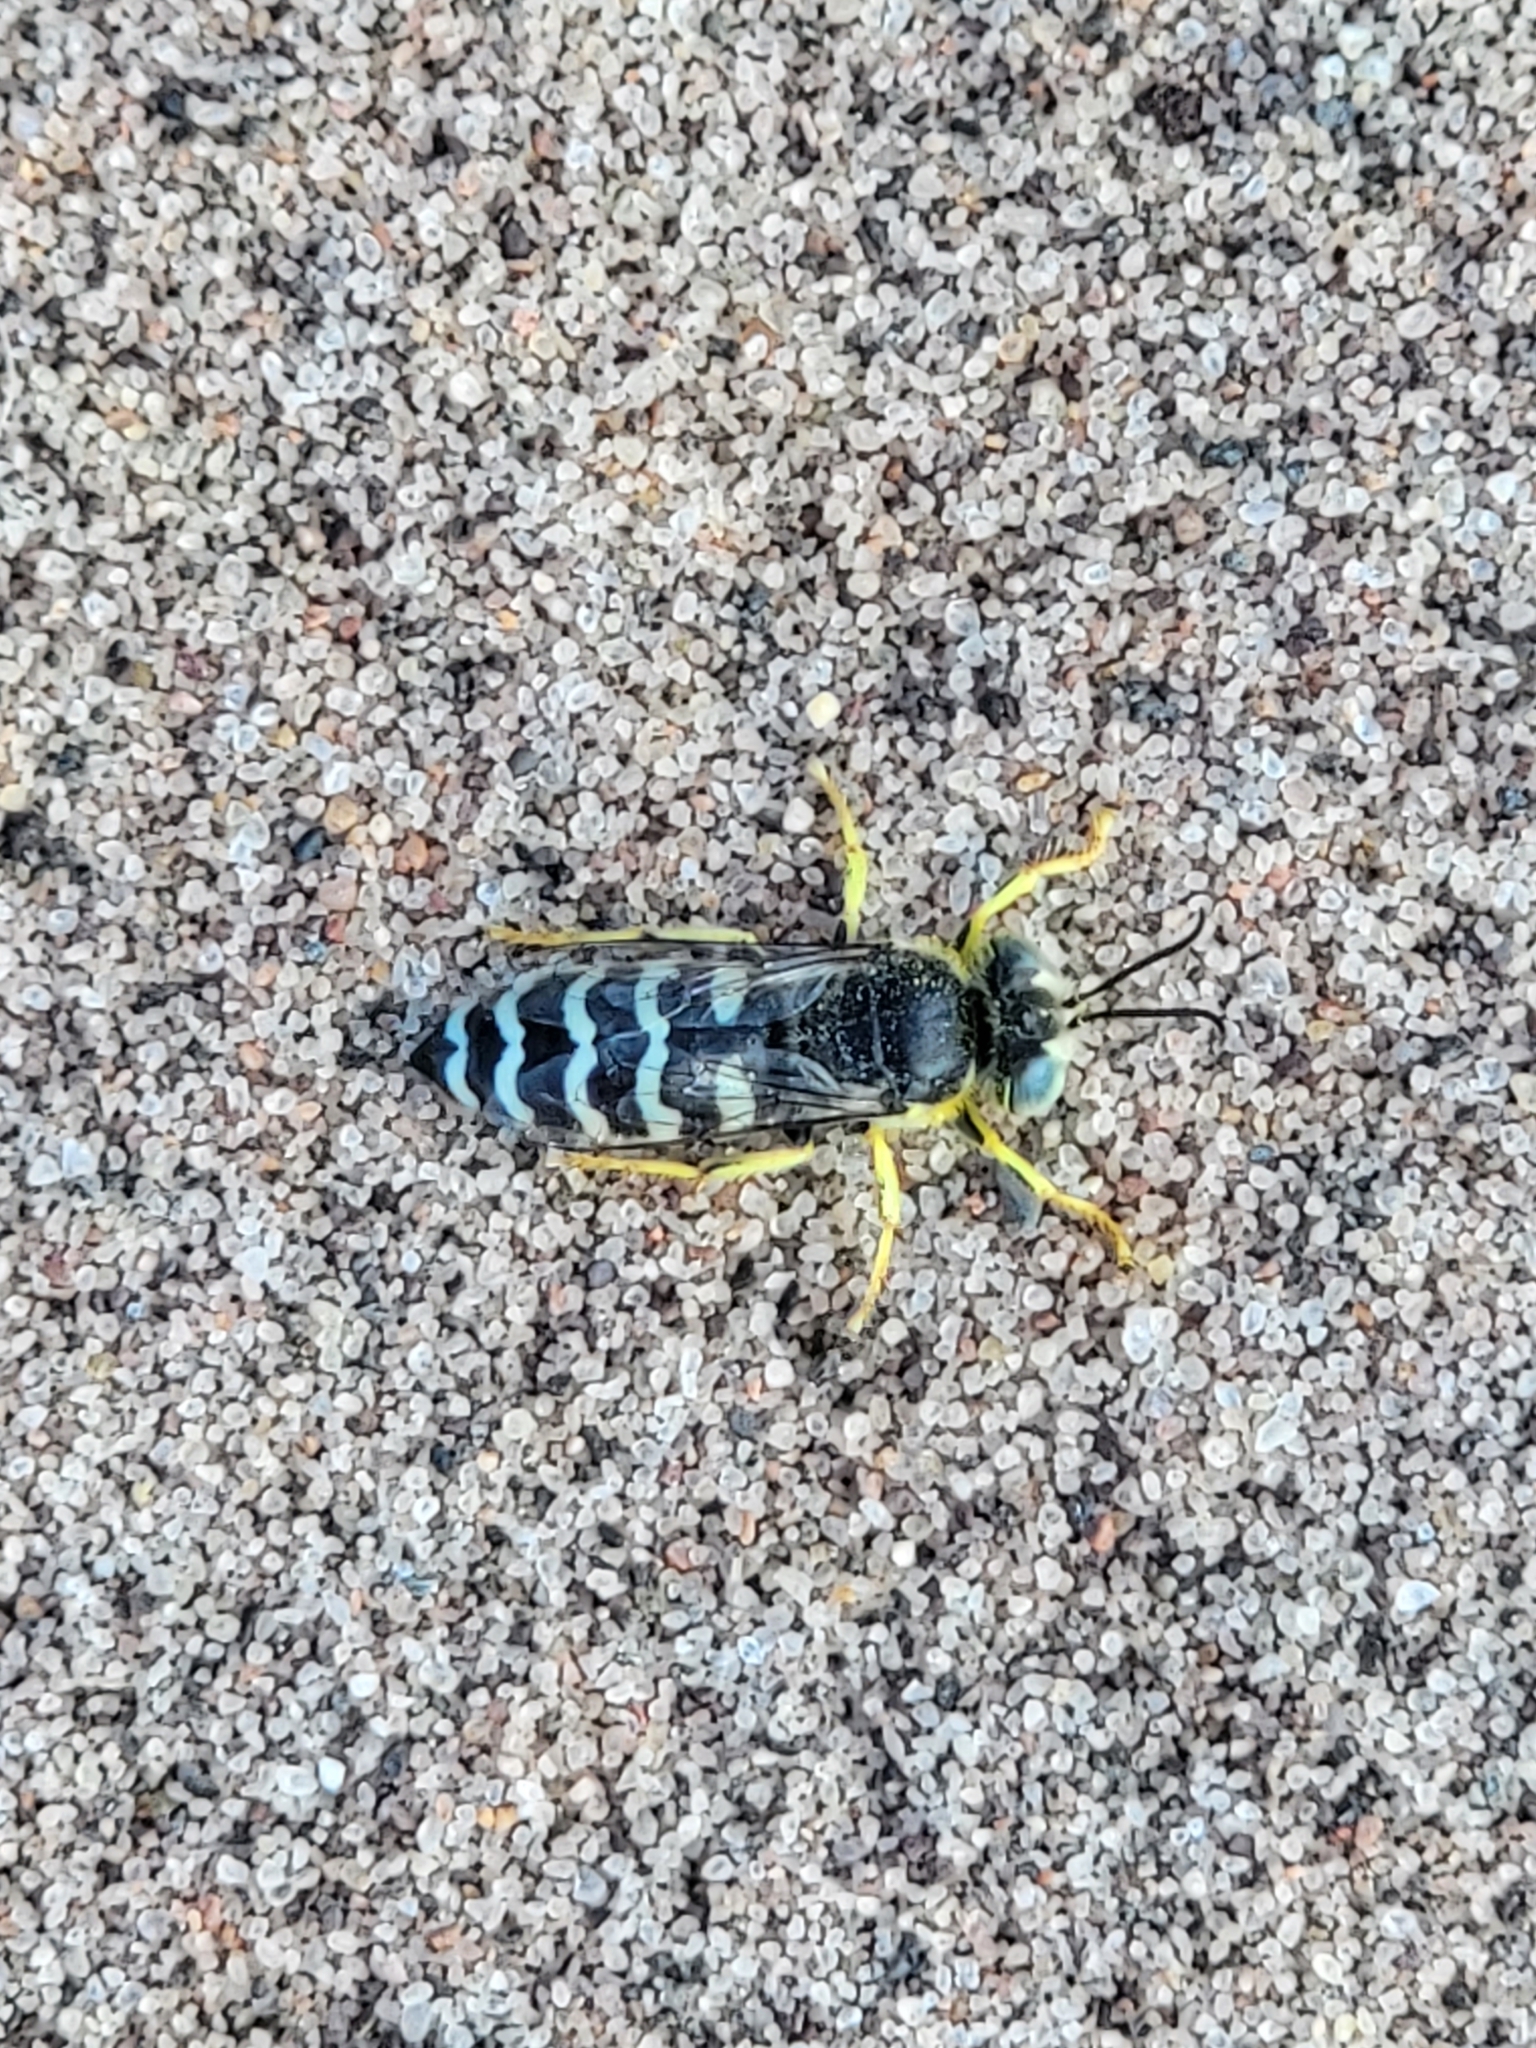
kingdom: Animalia
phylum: Arthropoda
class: Insecta
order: Hymenoptera
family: Crabronidae
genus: Bembix
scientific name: Bembix americana
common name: American sand wasp
